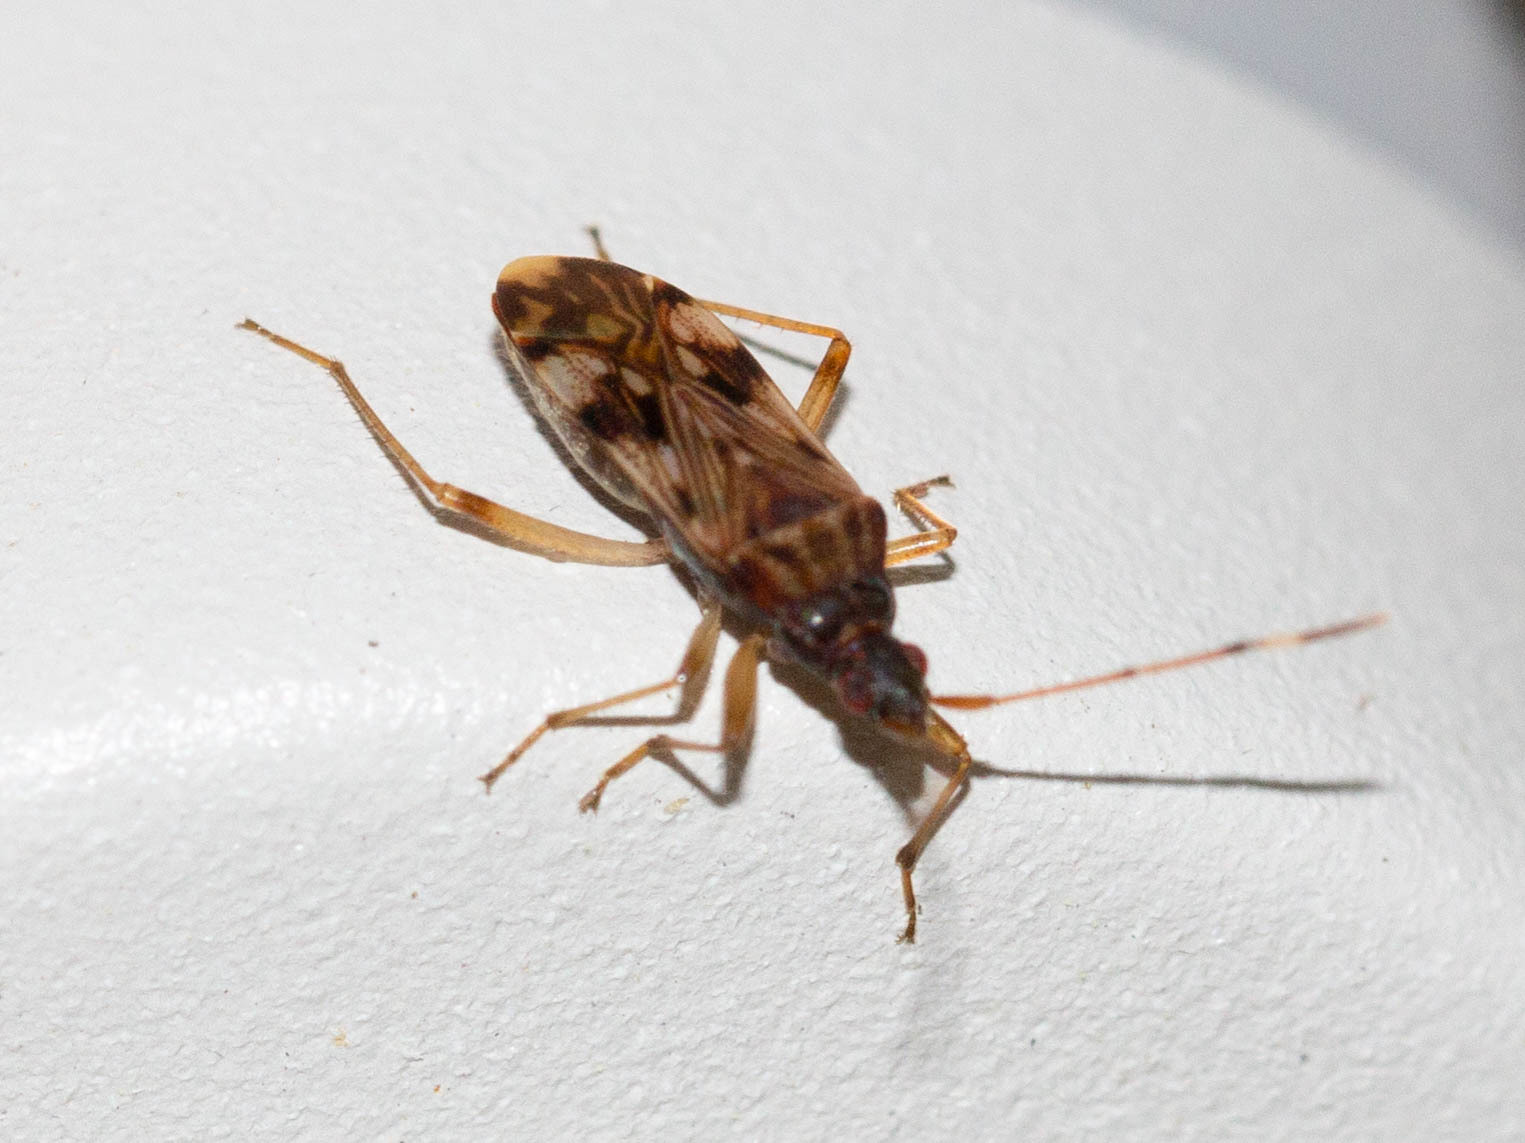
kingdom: Animalia
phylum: Arthropoda
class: Insecta
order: Hemiptera
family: Rhyparochromidae
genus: Ozophora
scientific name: Ozophora picturata
